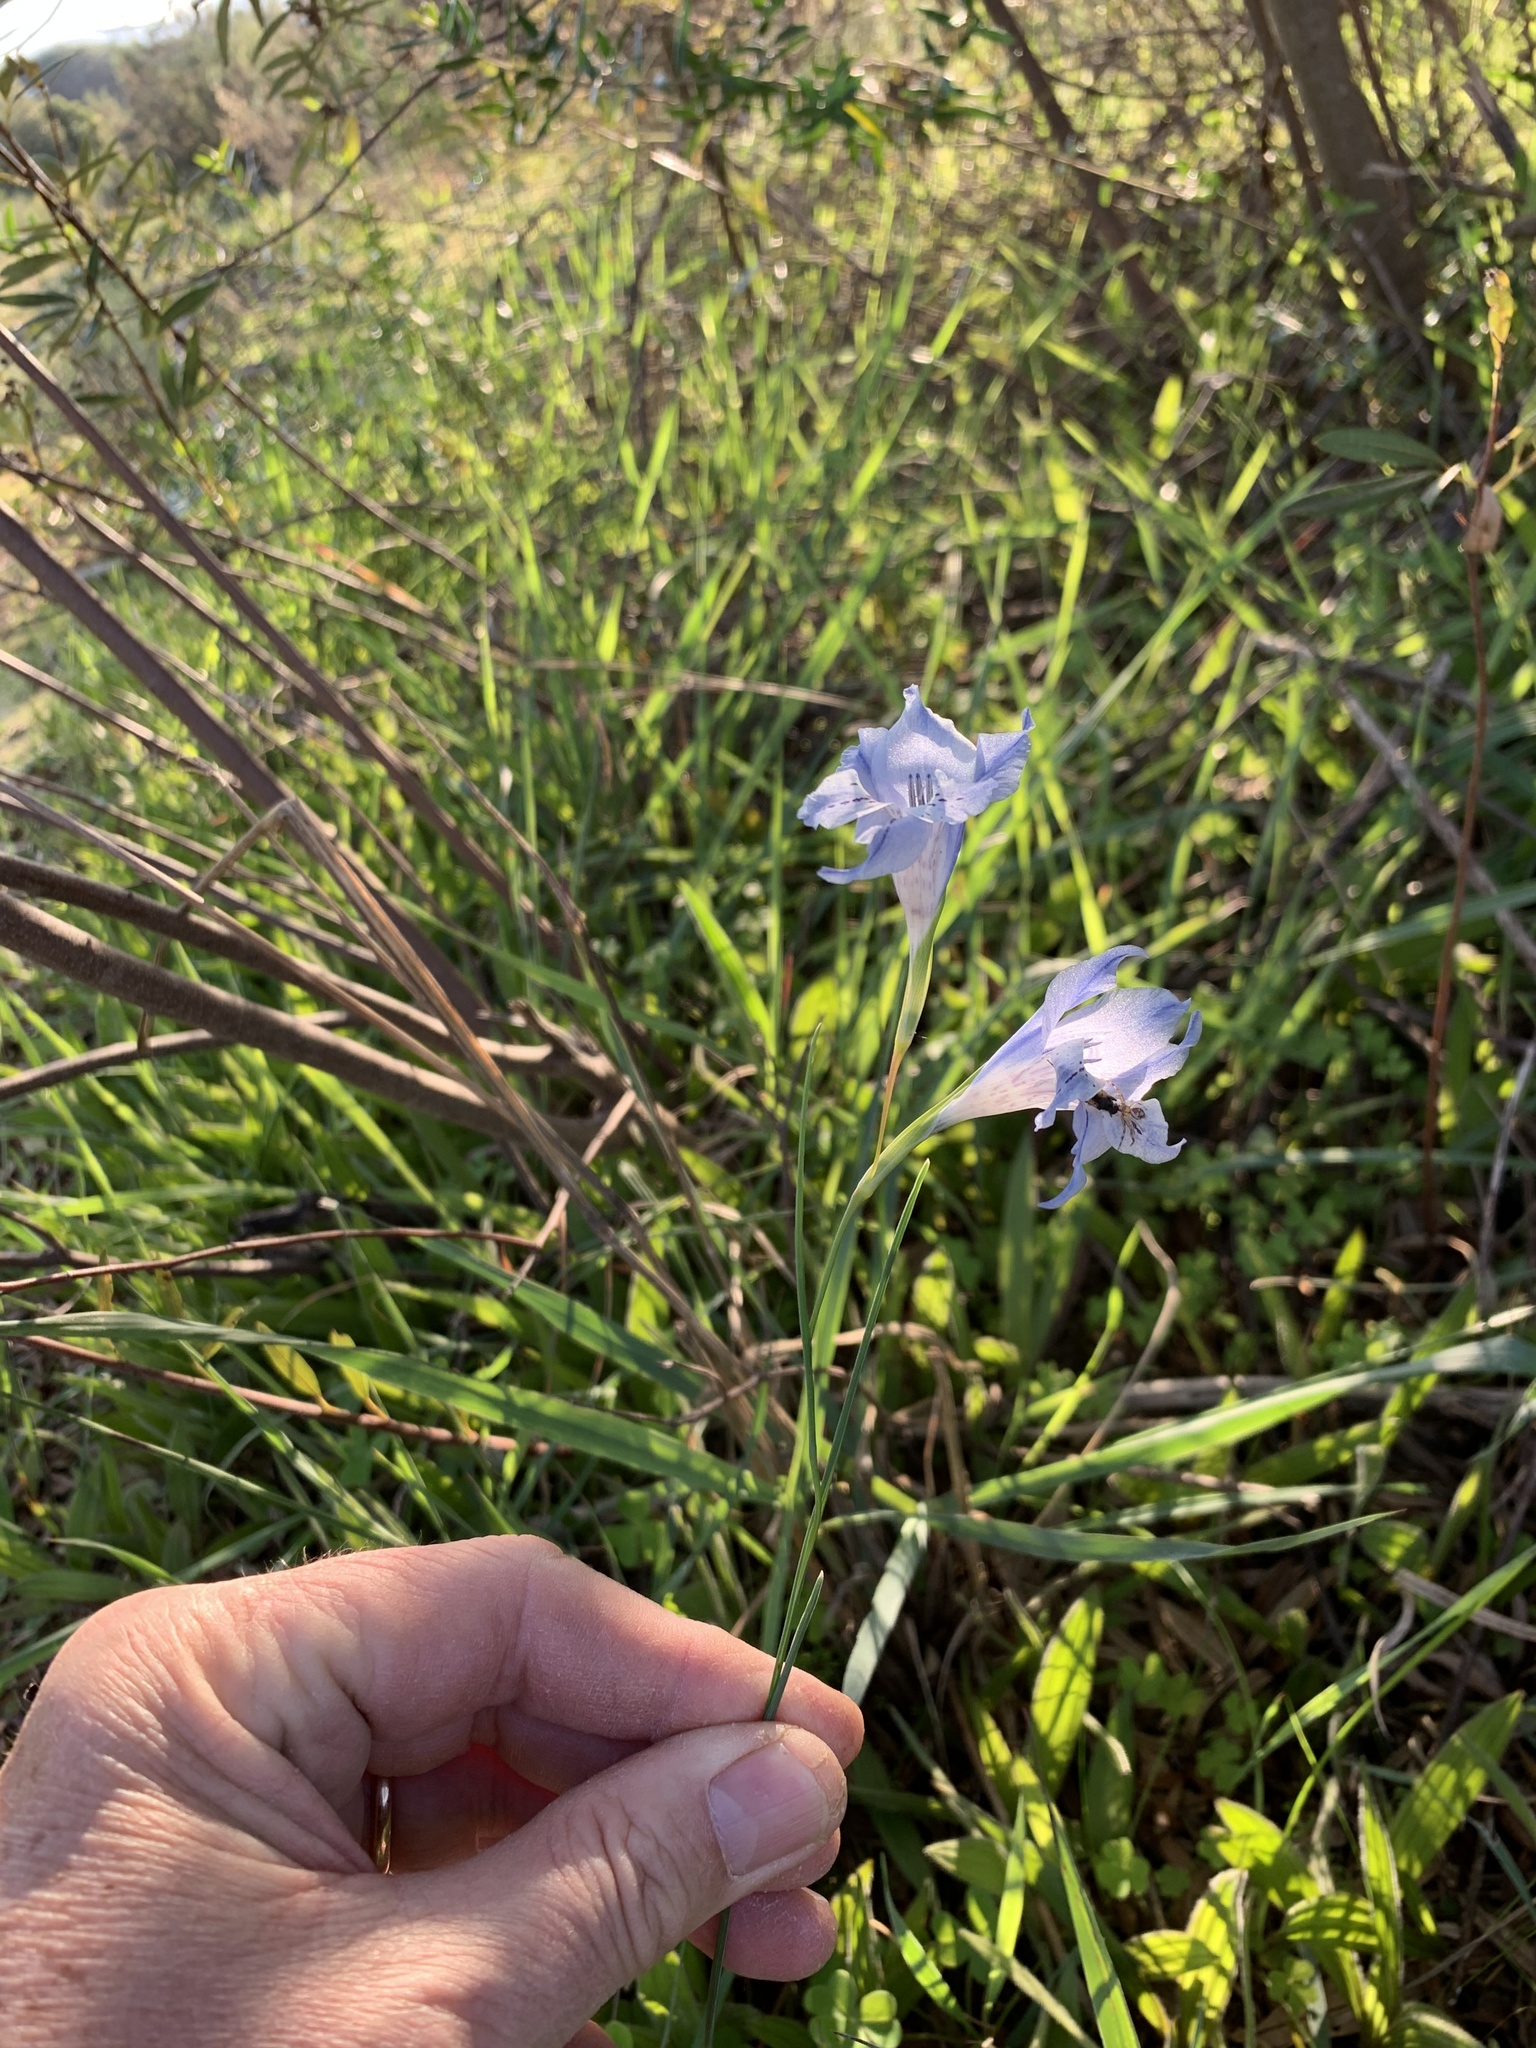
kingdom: Plantae
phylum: Tracheophyta
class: Liliopsida
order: Asparagales
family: Iridaceae
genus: Gladiolus
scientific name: Gladiolus gracilis
